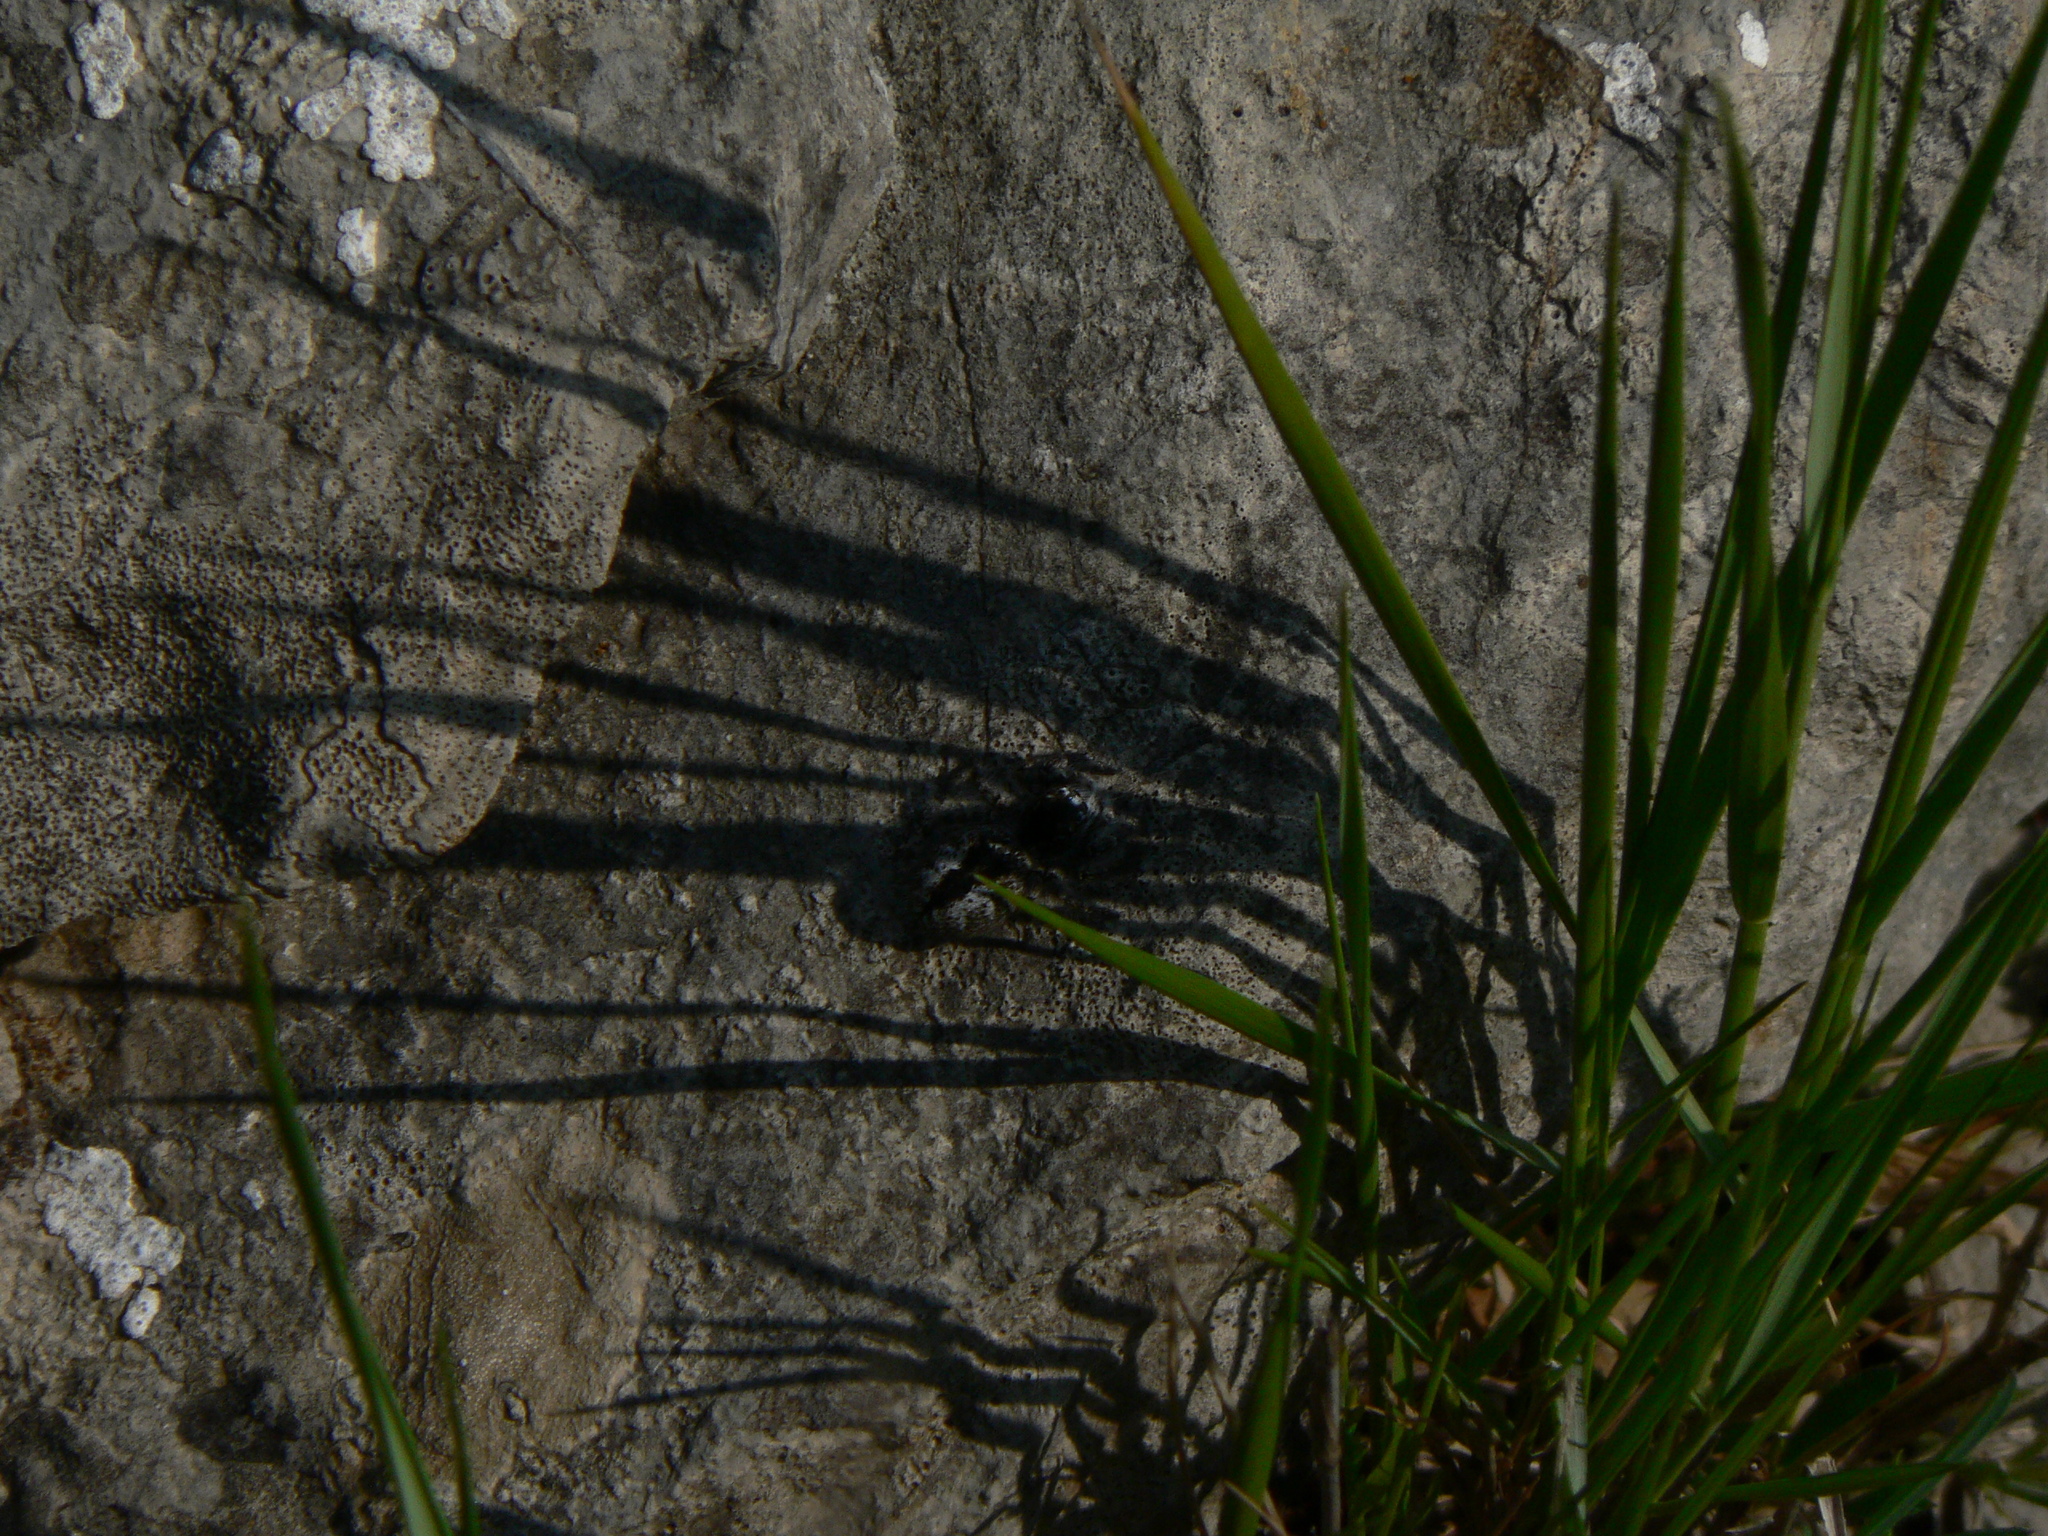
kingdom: Animalia
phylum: Arthropoda
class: Arachnida
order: Araneae
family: Salticidae
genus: Philaeus
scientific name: Philaeus chrysops
